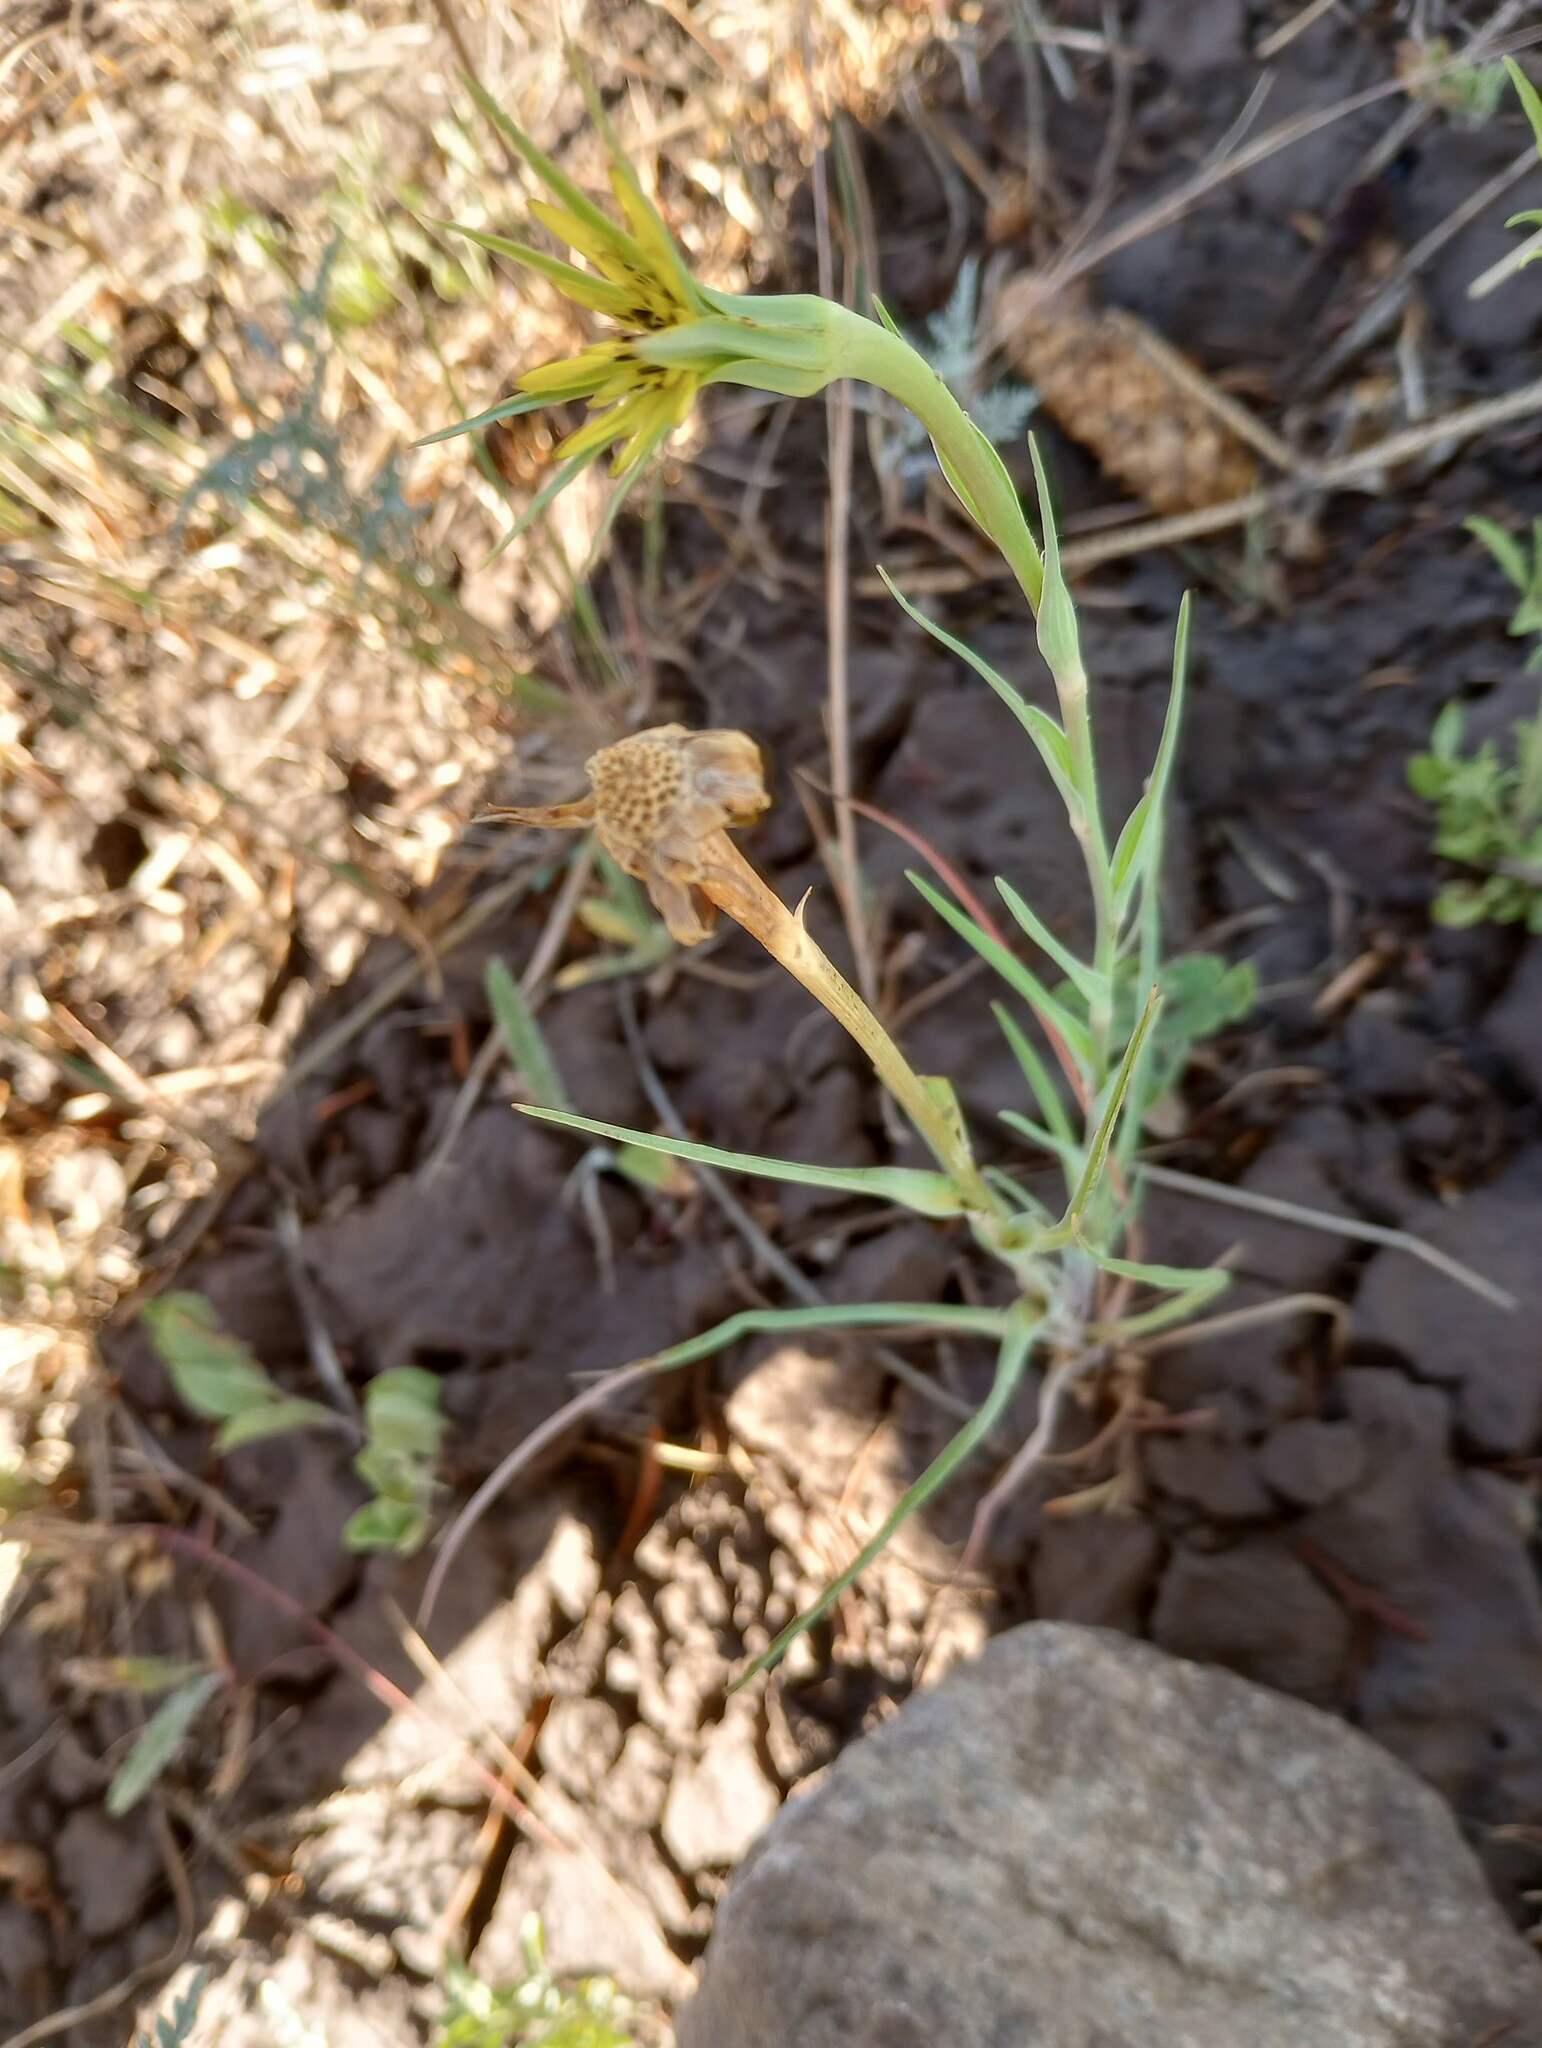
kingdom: Plantae
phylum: Tracheophyta
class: Magnoliopsida
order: Asterales
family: Asteraceae
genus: Tragopogon
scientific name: Tragopogon dubius
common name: Yellow salsify
